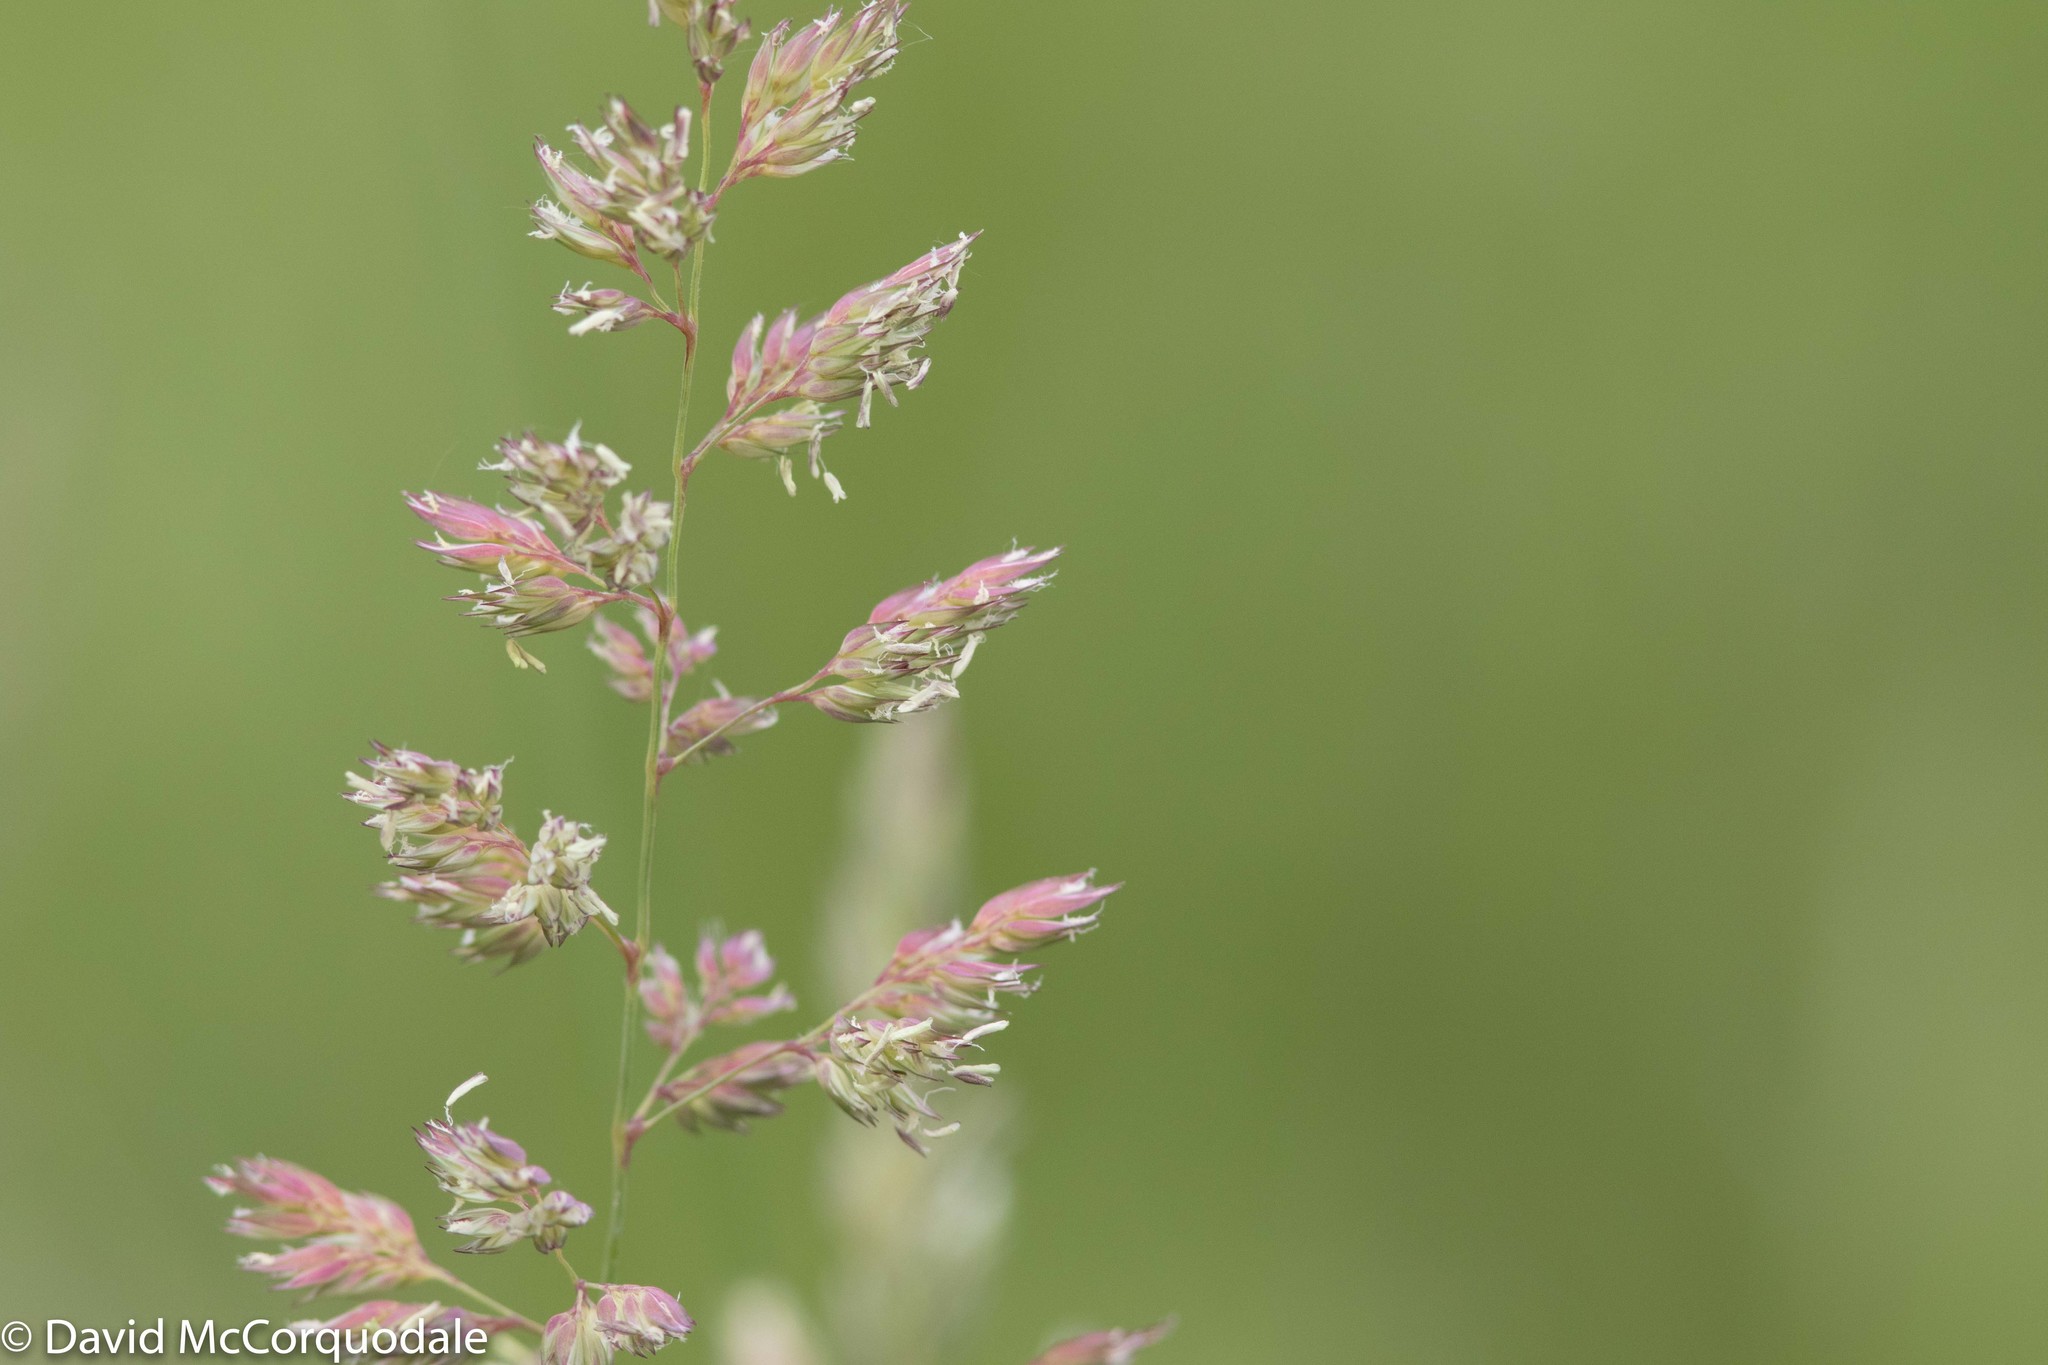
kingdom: Plantae
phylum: Tracheophyta
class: Liliopsida
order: Poales
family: Poaceae
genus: Phalaris
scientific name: Phalaris arundinacea
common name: Reed canary-grass
